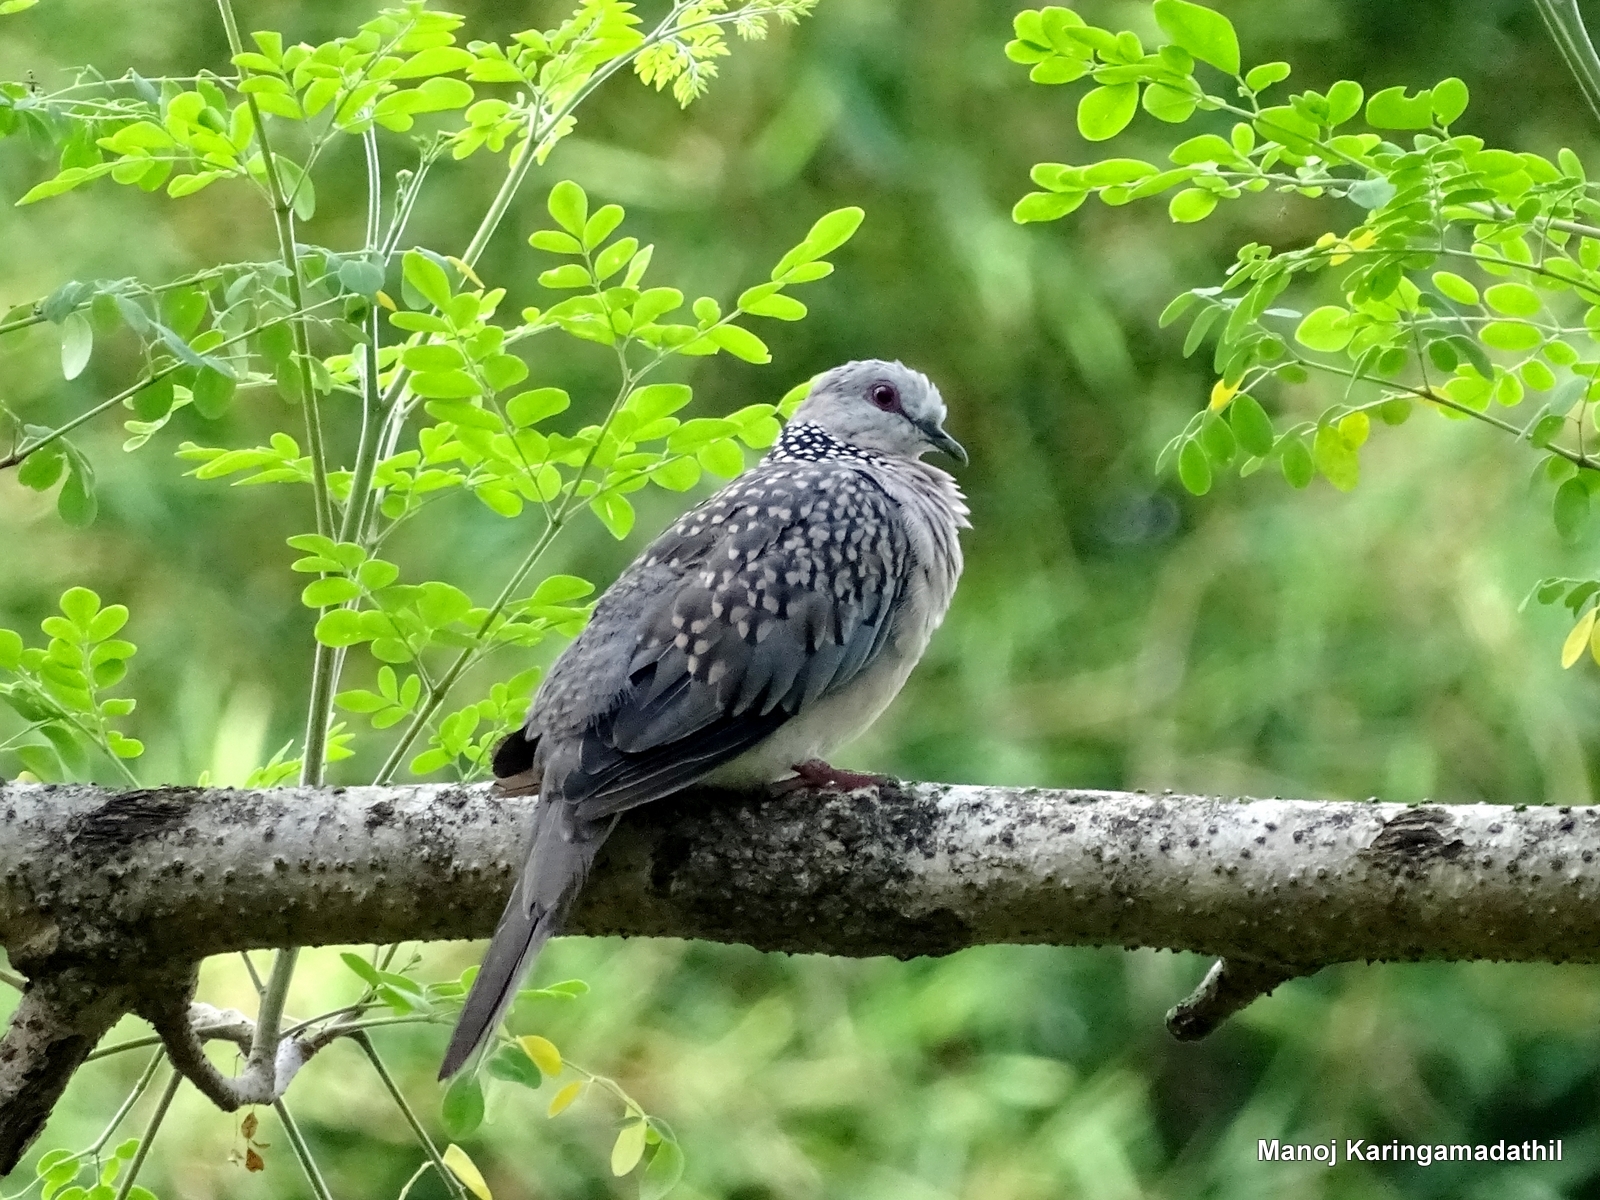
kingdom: Animalia
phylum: Chordata
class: Aves
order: Columbiformes
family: Columbidae
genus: Spilopelia
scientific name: Spilopelia chinensis
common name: Spotted dove
